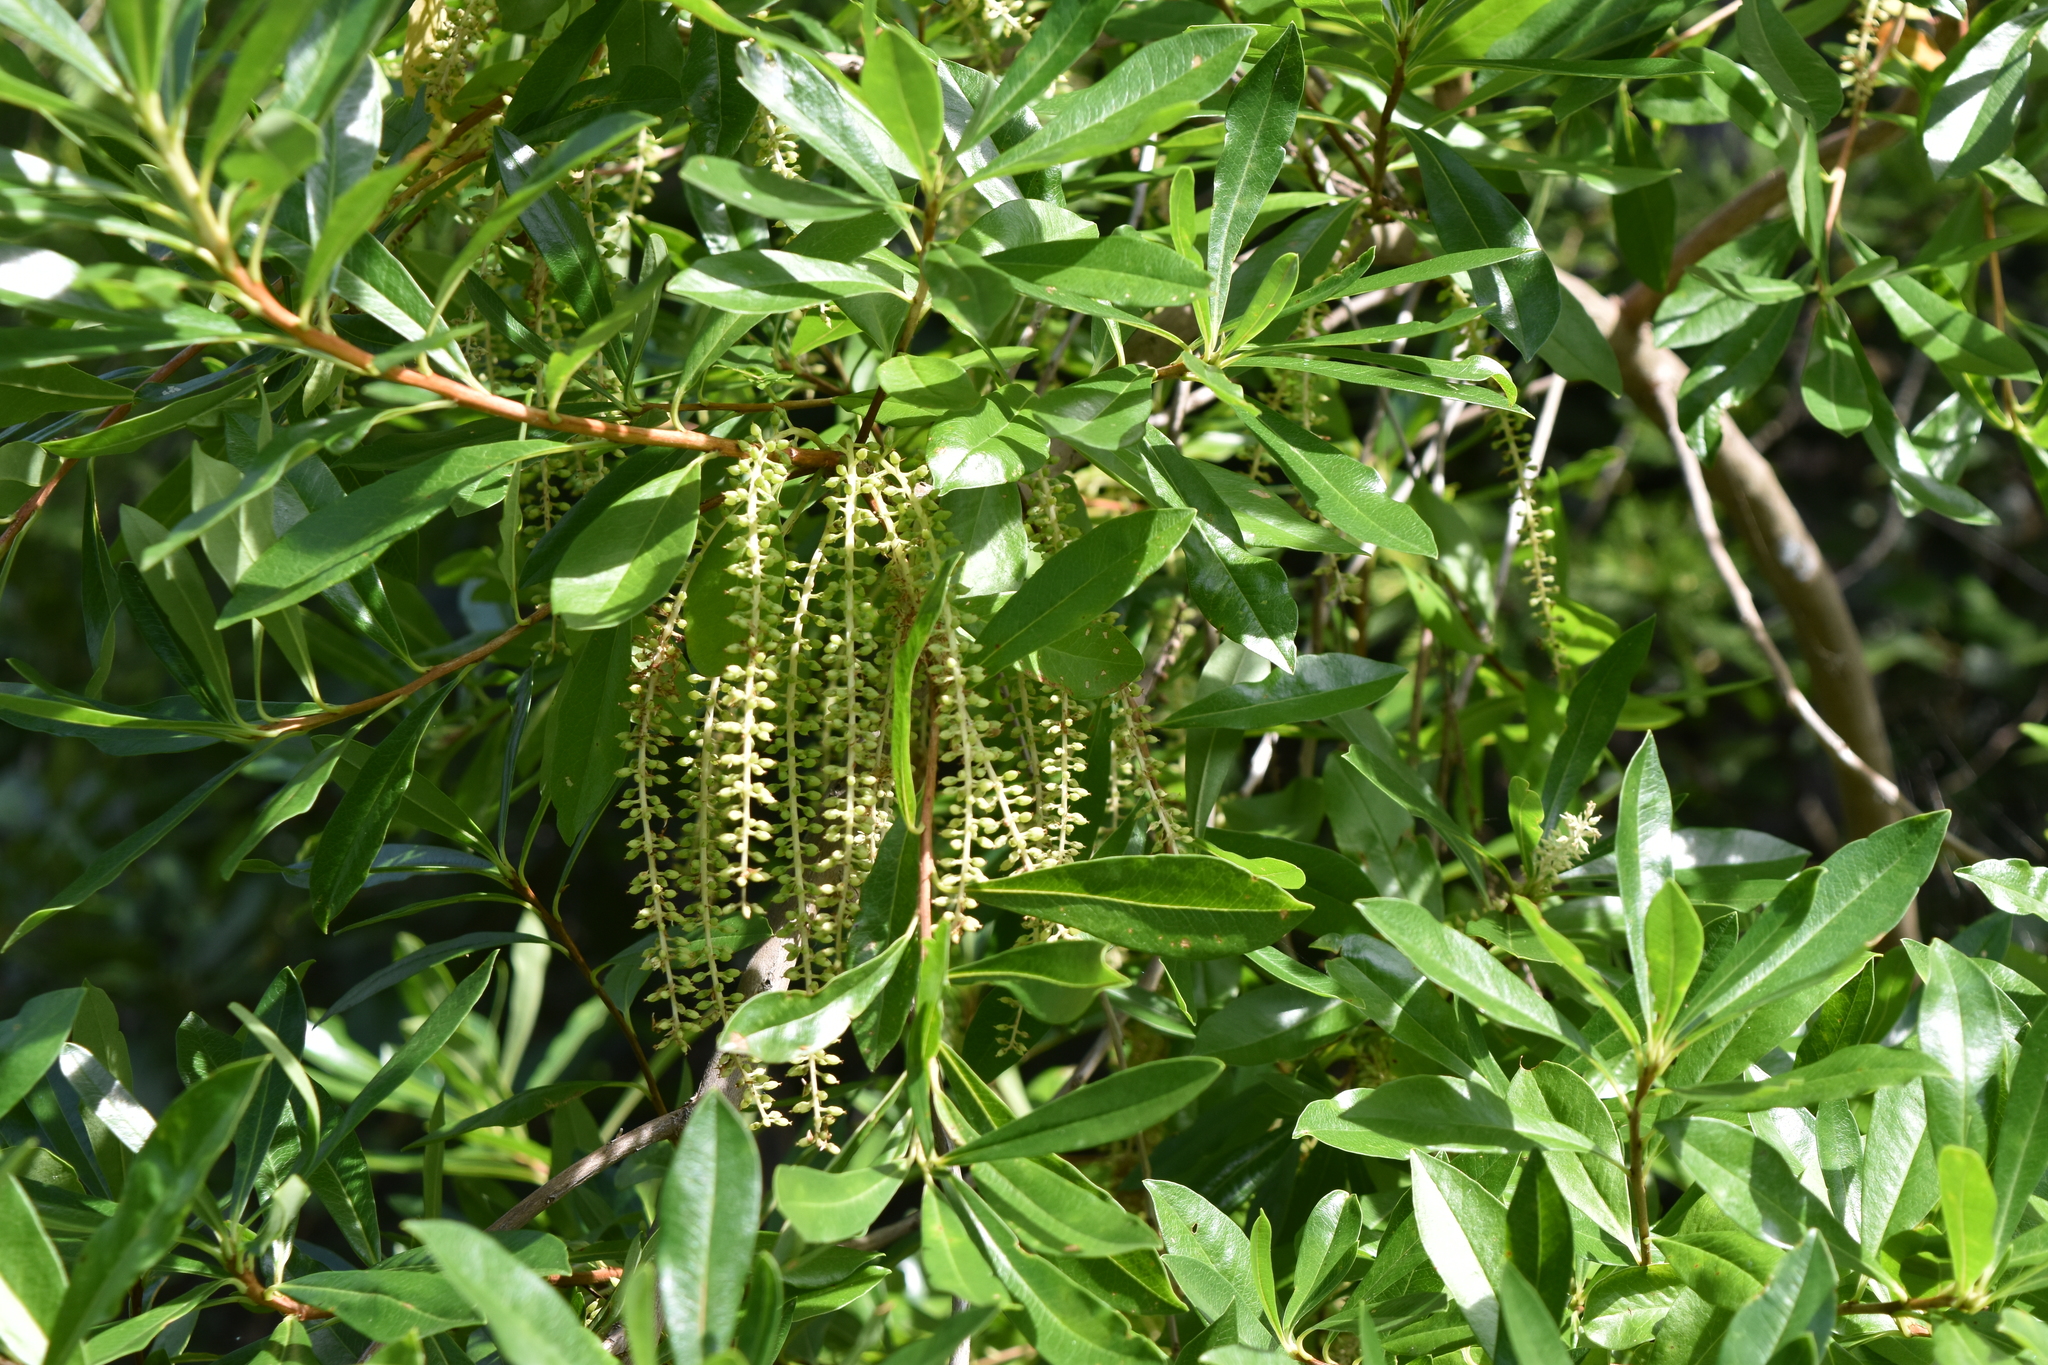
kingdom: Plantae
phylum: Tracheophyta
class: Magnoliopsida
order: Ericales
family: Cyrillaceae
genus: Cyrilla
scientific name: Cyrilla racemiflora
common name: Black titi
